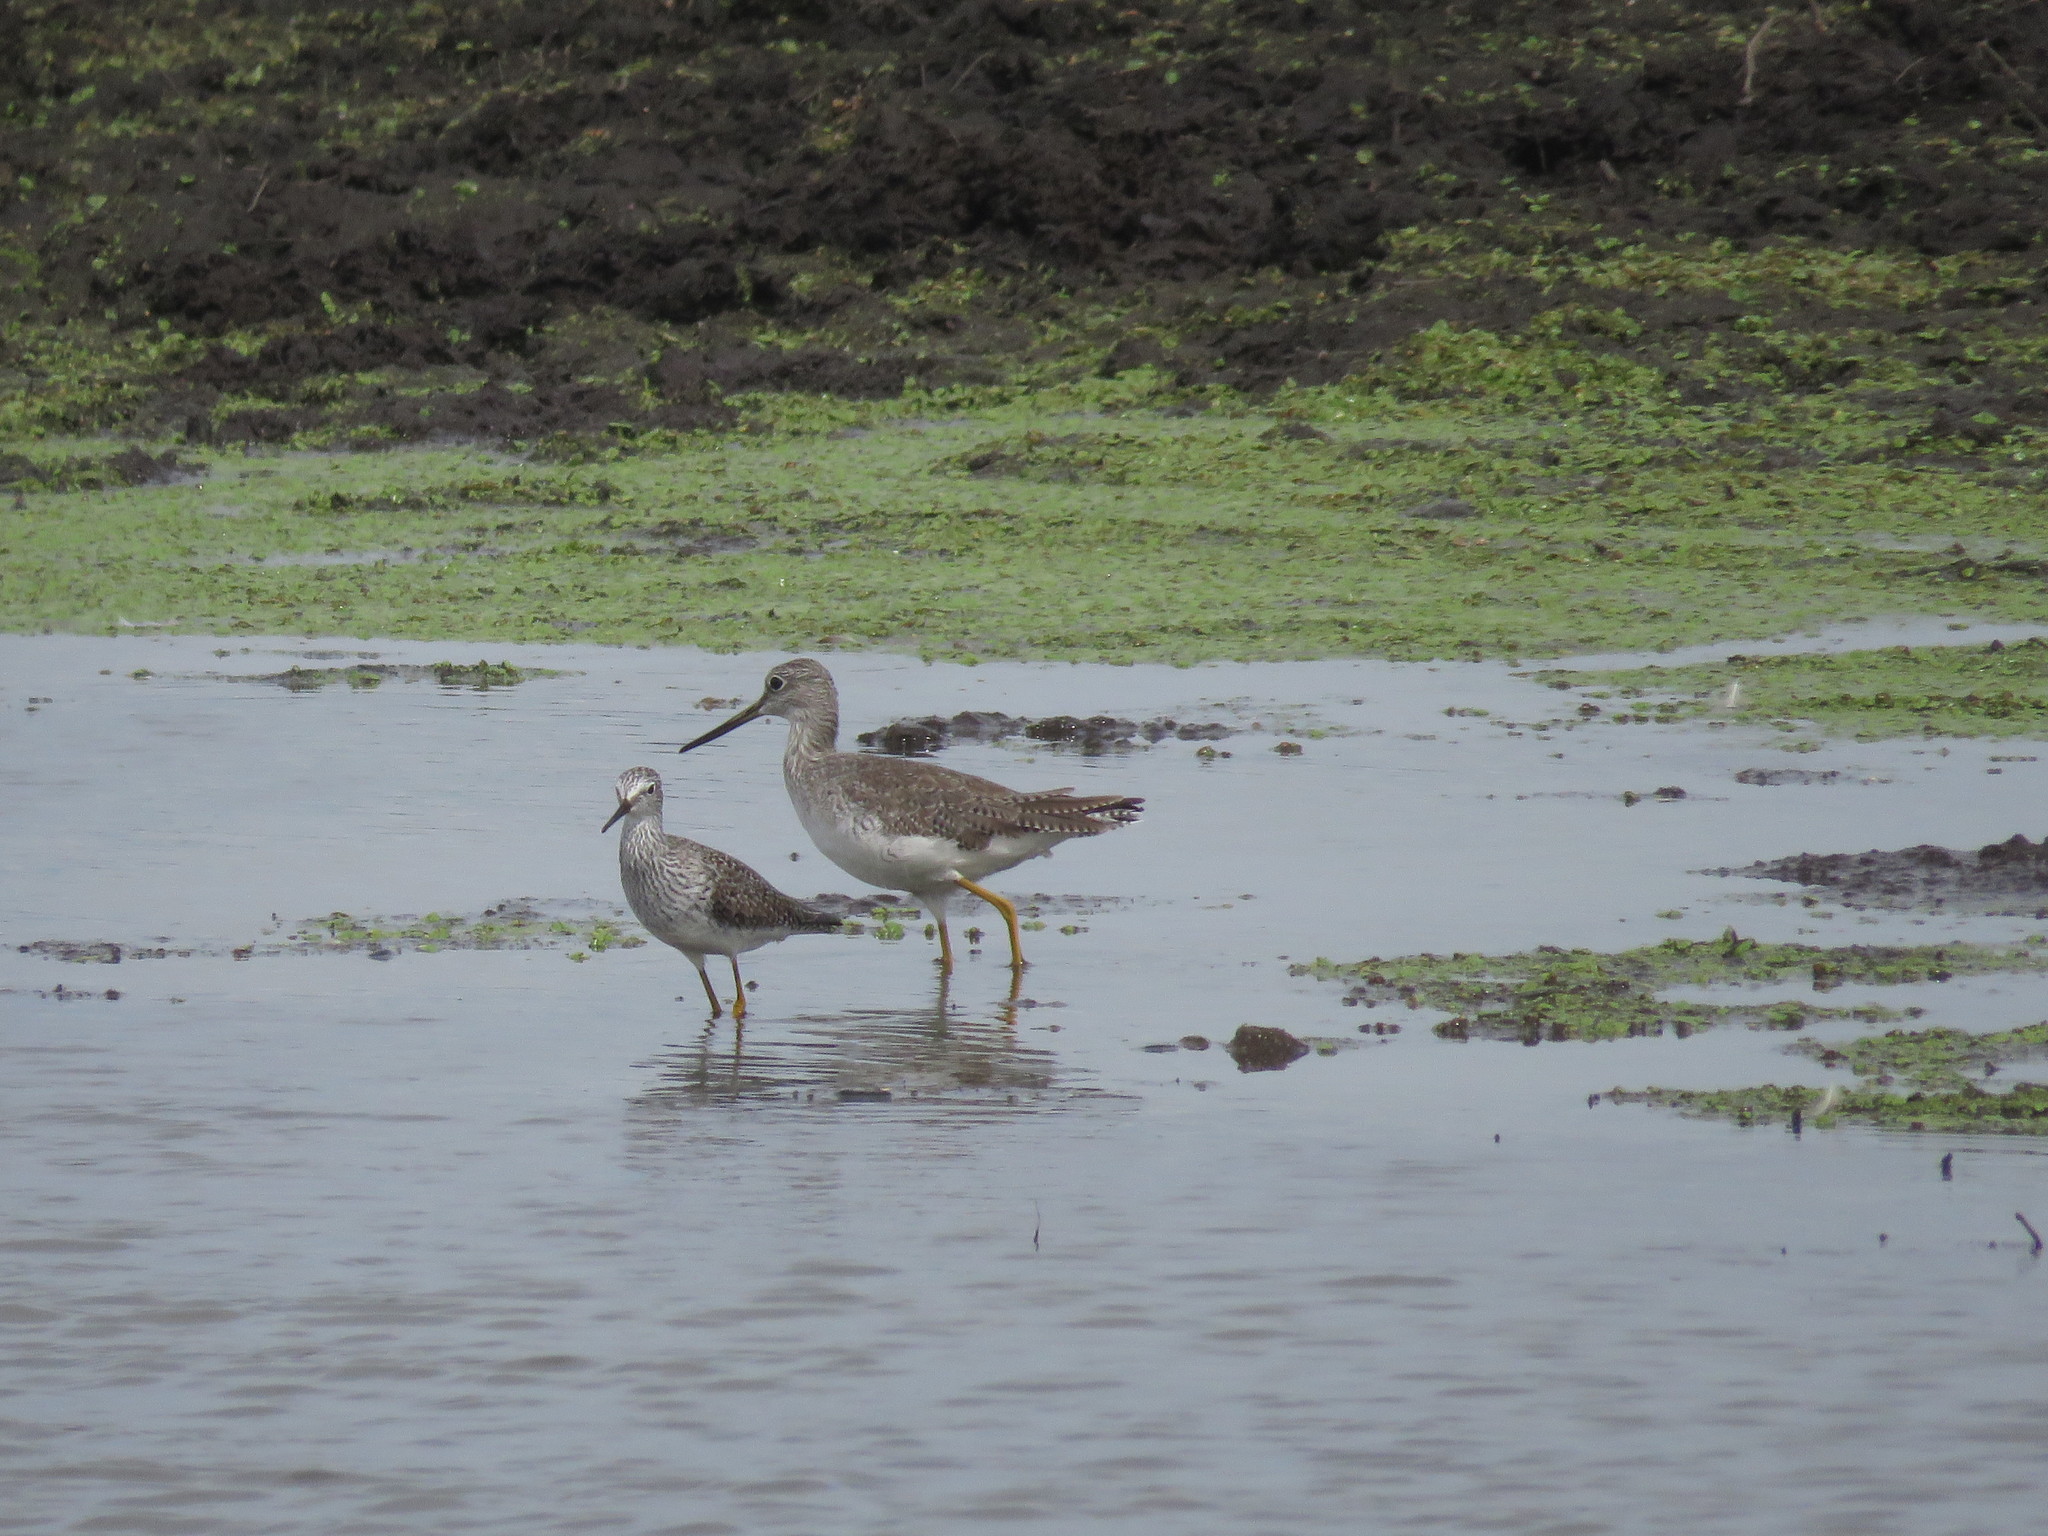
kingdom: Animalia
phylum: Chordata
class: Aves
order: Charadriiformes
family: Scolopacidae
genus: Tringa
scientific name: Tringa flavipes
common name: Lesser yellowlegs
